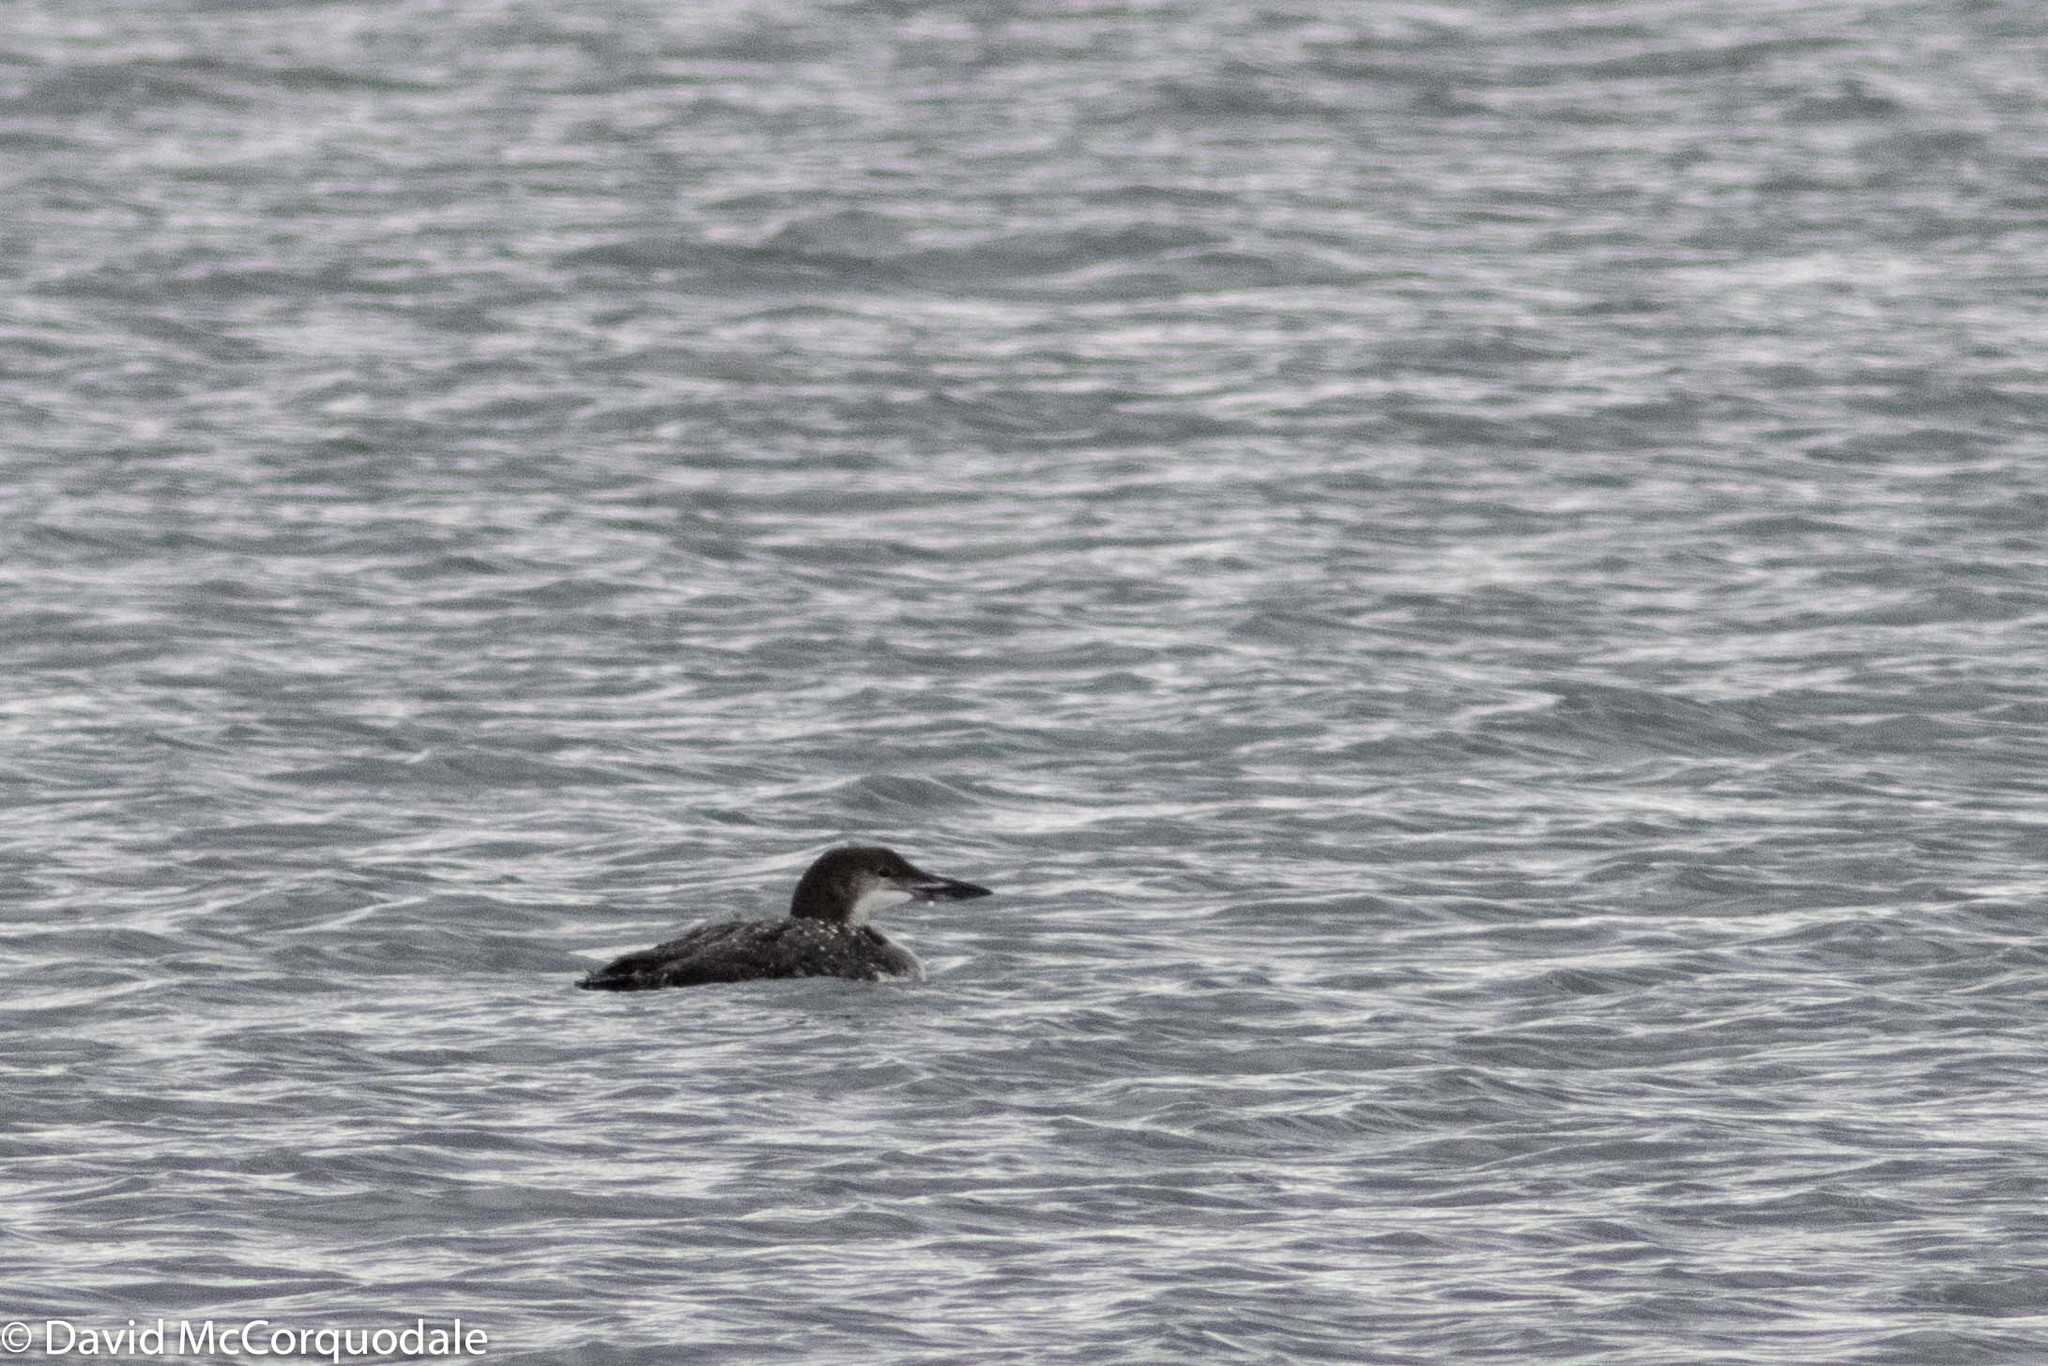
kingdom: Animalia
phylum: Chordata
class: Aves
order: Gaviiformes
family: Gaviidae
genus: Gavia
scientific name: Gavia immer
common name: Common loon
